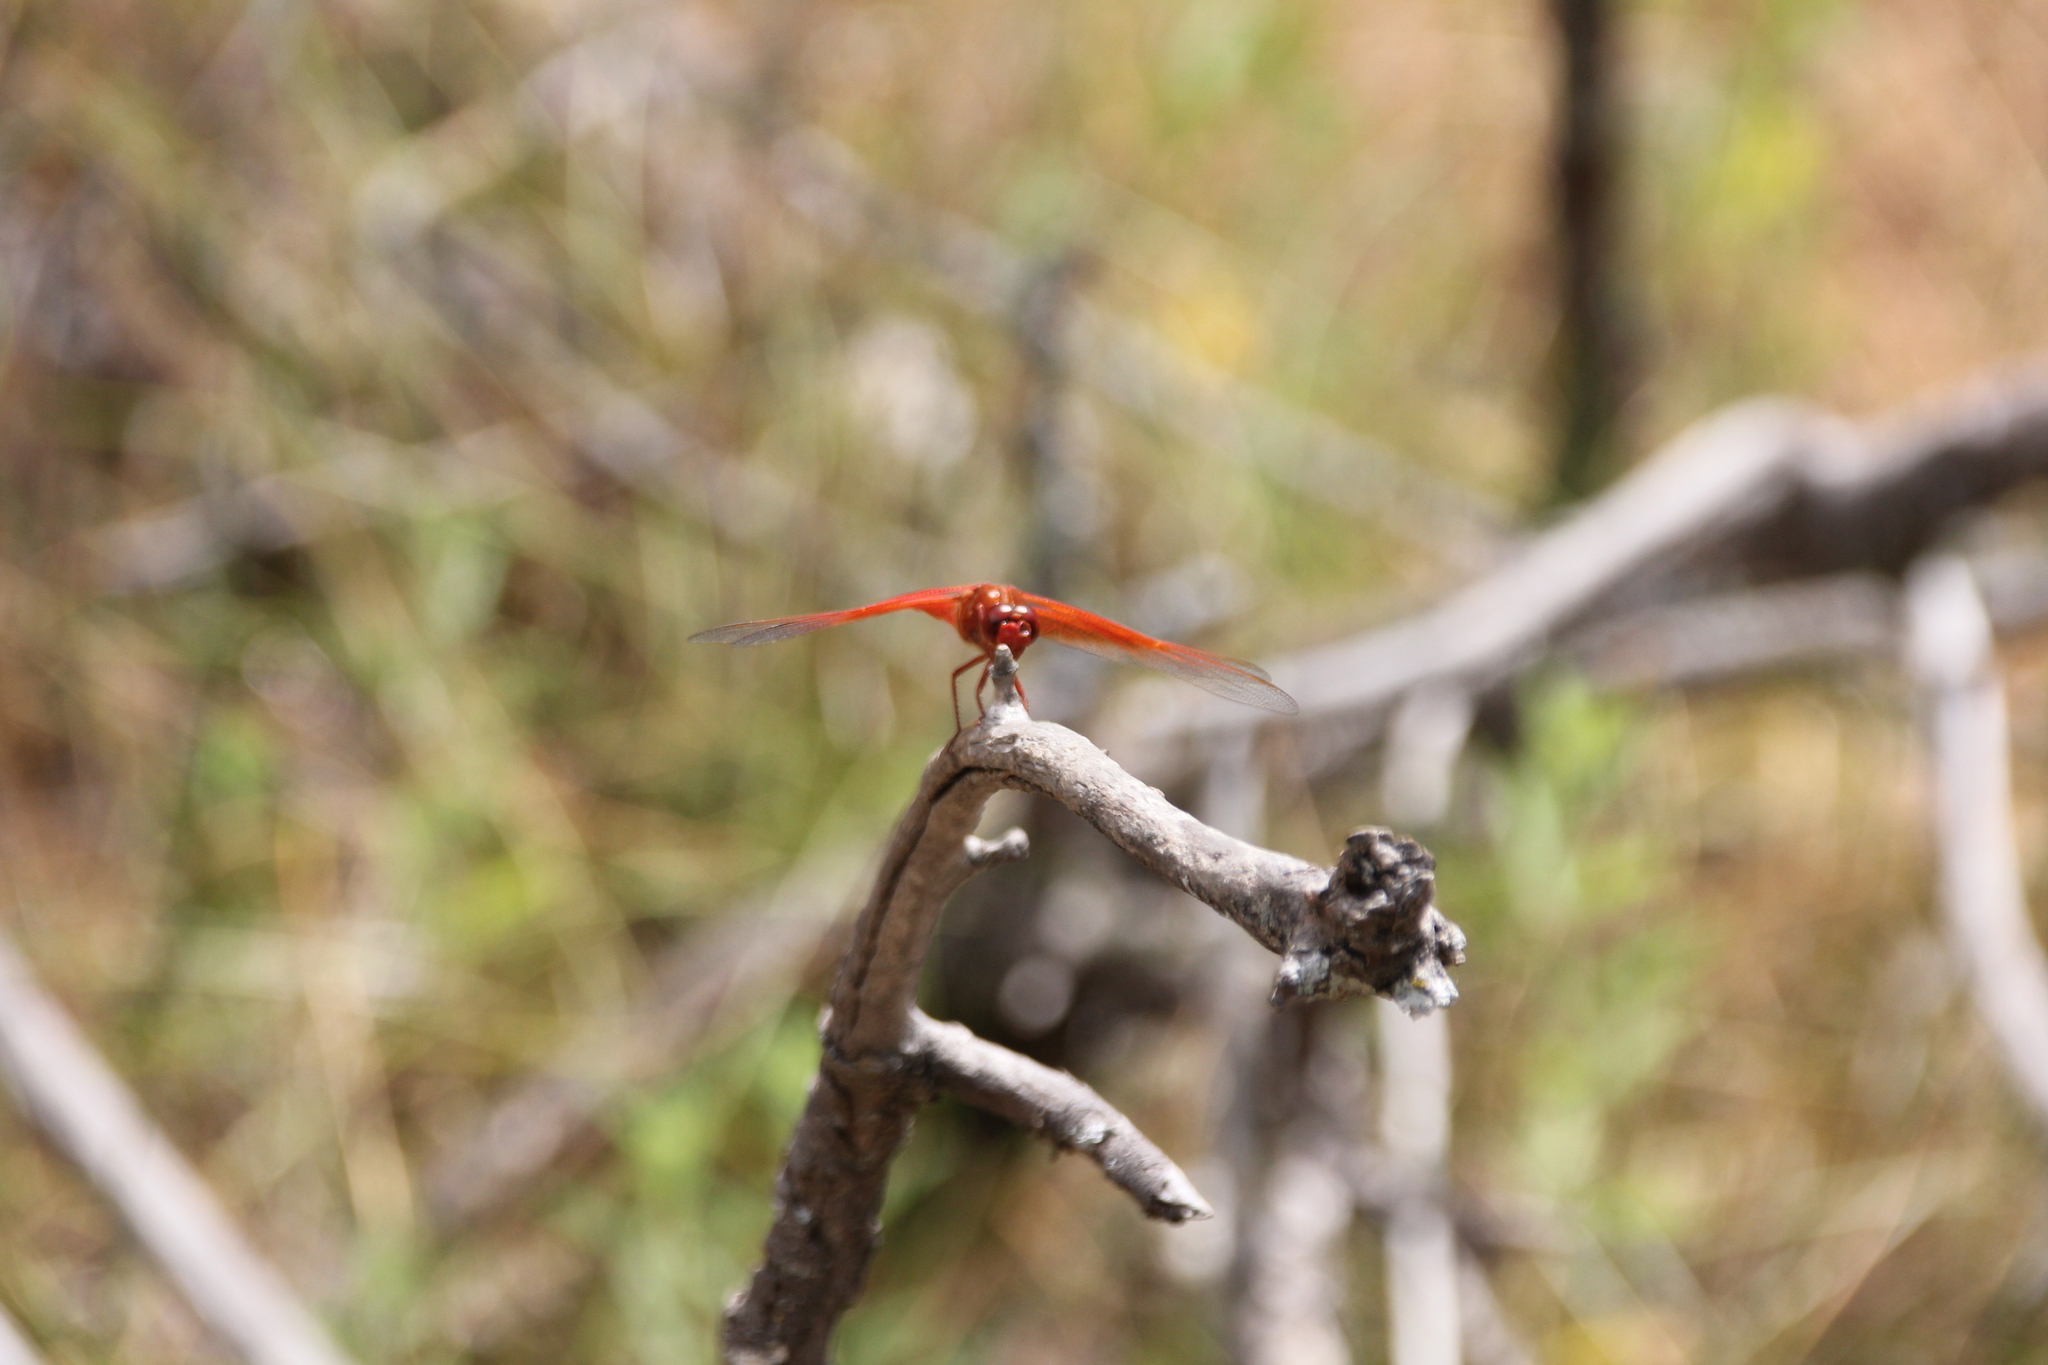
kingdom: Animalia
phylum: Arthropoda
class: Insecta
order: Odonata
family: Libellulidae
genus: Libellula
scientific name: Libellula saturata
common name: Flame skimmer
